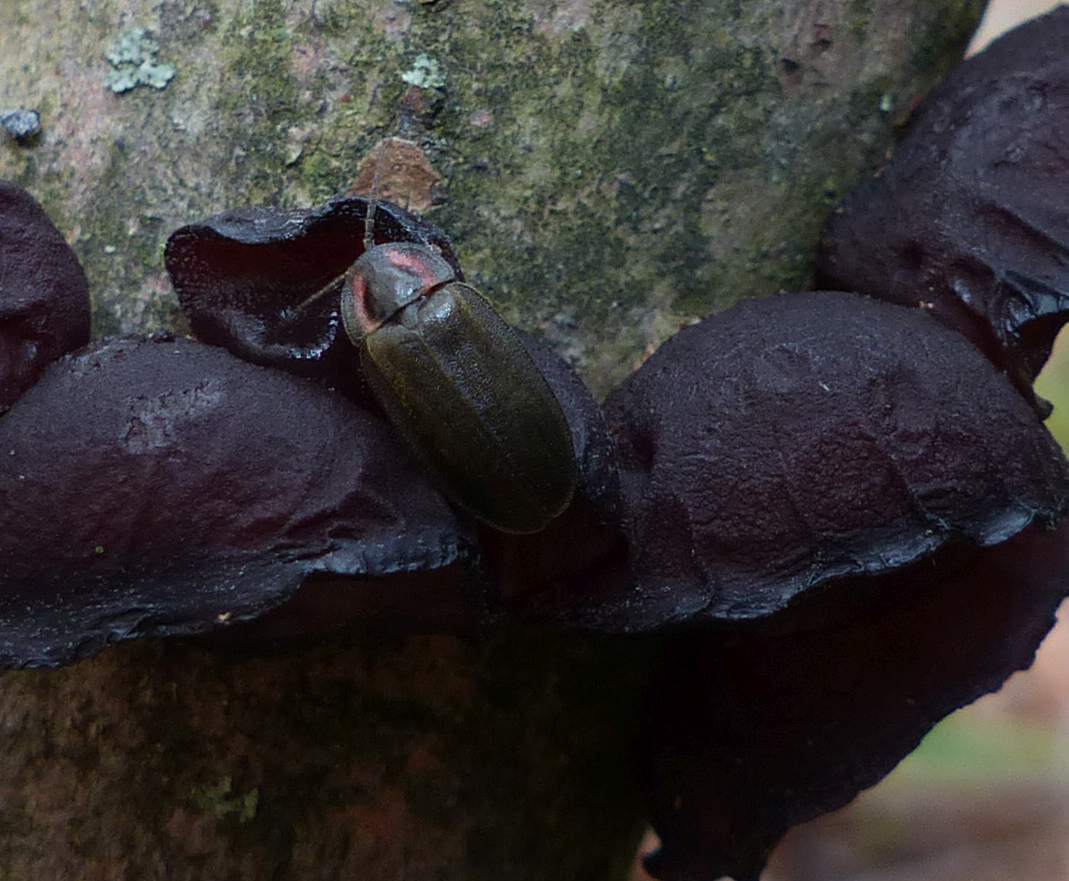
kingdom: Animalia
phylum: Arthropoda
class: Insecta
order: Coleoptera
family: Lampyridae
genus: Photinus
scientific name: Photinus corrusca
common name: Winter firefly
